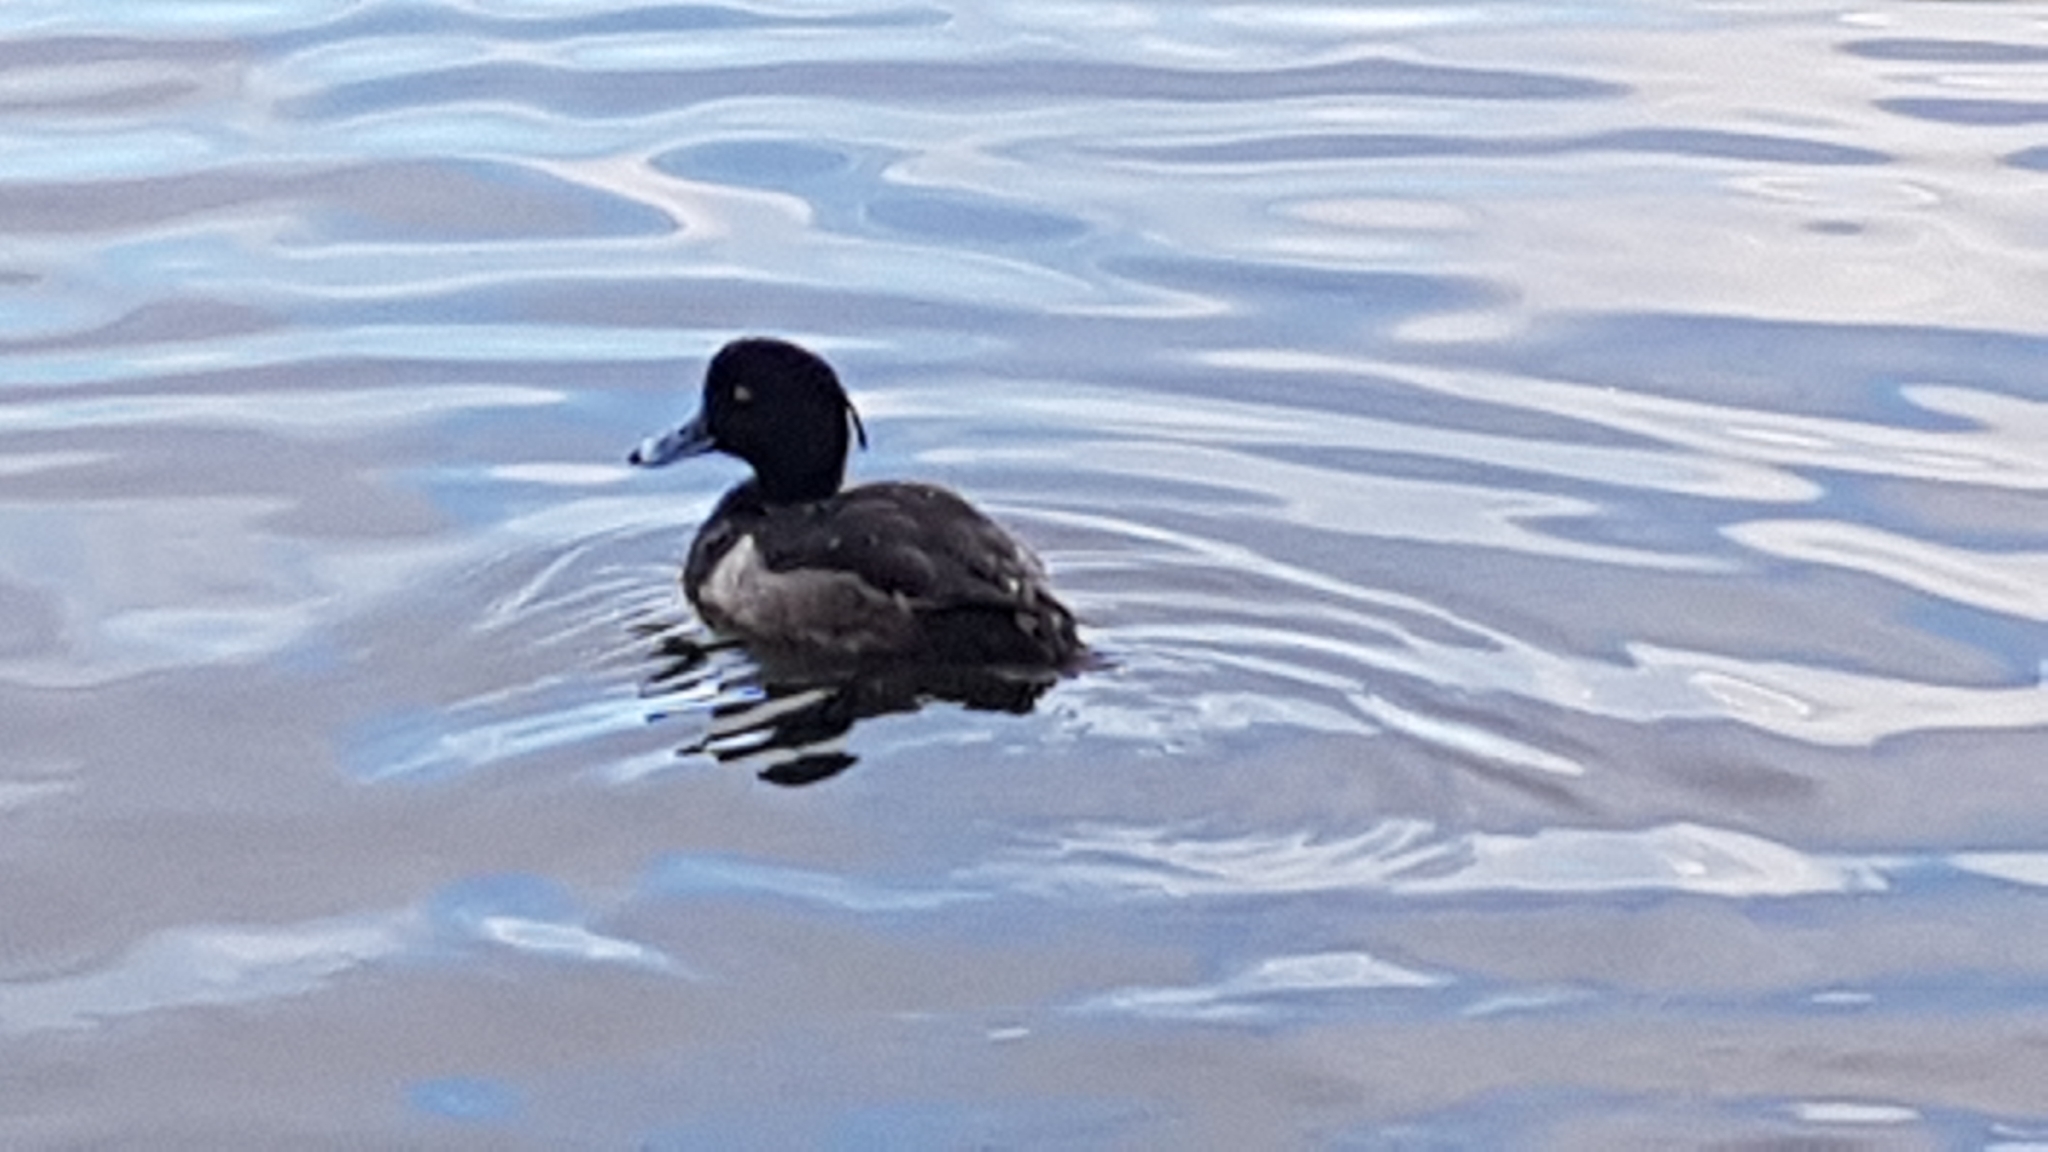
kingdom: Animalia
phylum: Chordata
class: Aves
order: Anseriformes
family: Anatidae
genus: Aythya
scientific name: Aythya fuligula
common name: Tufted duck
